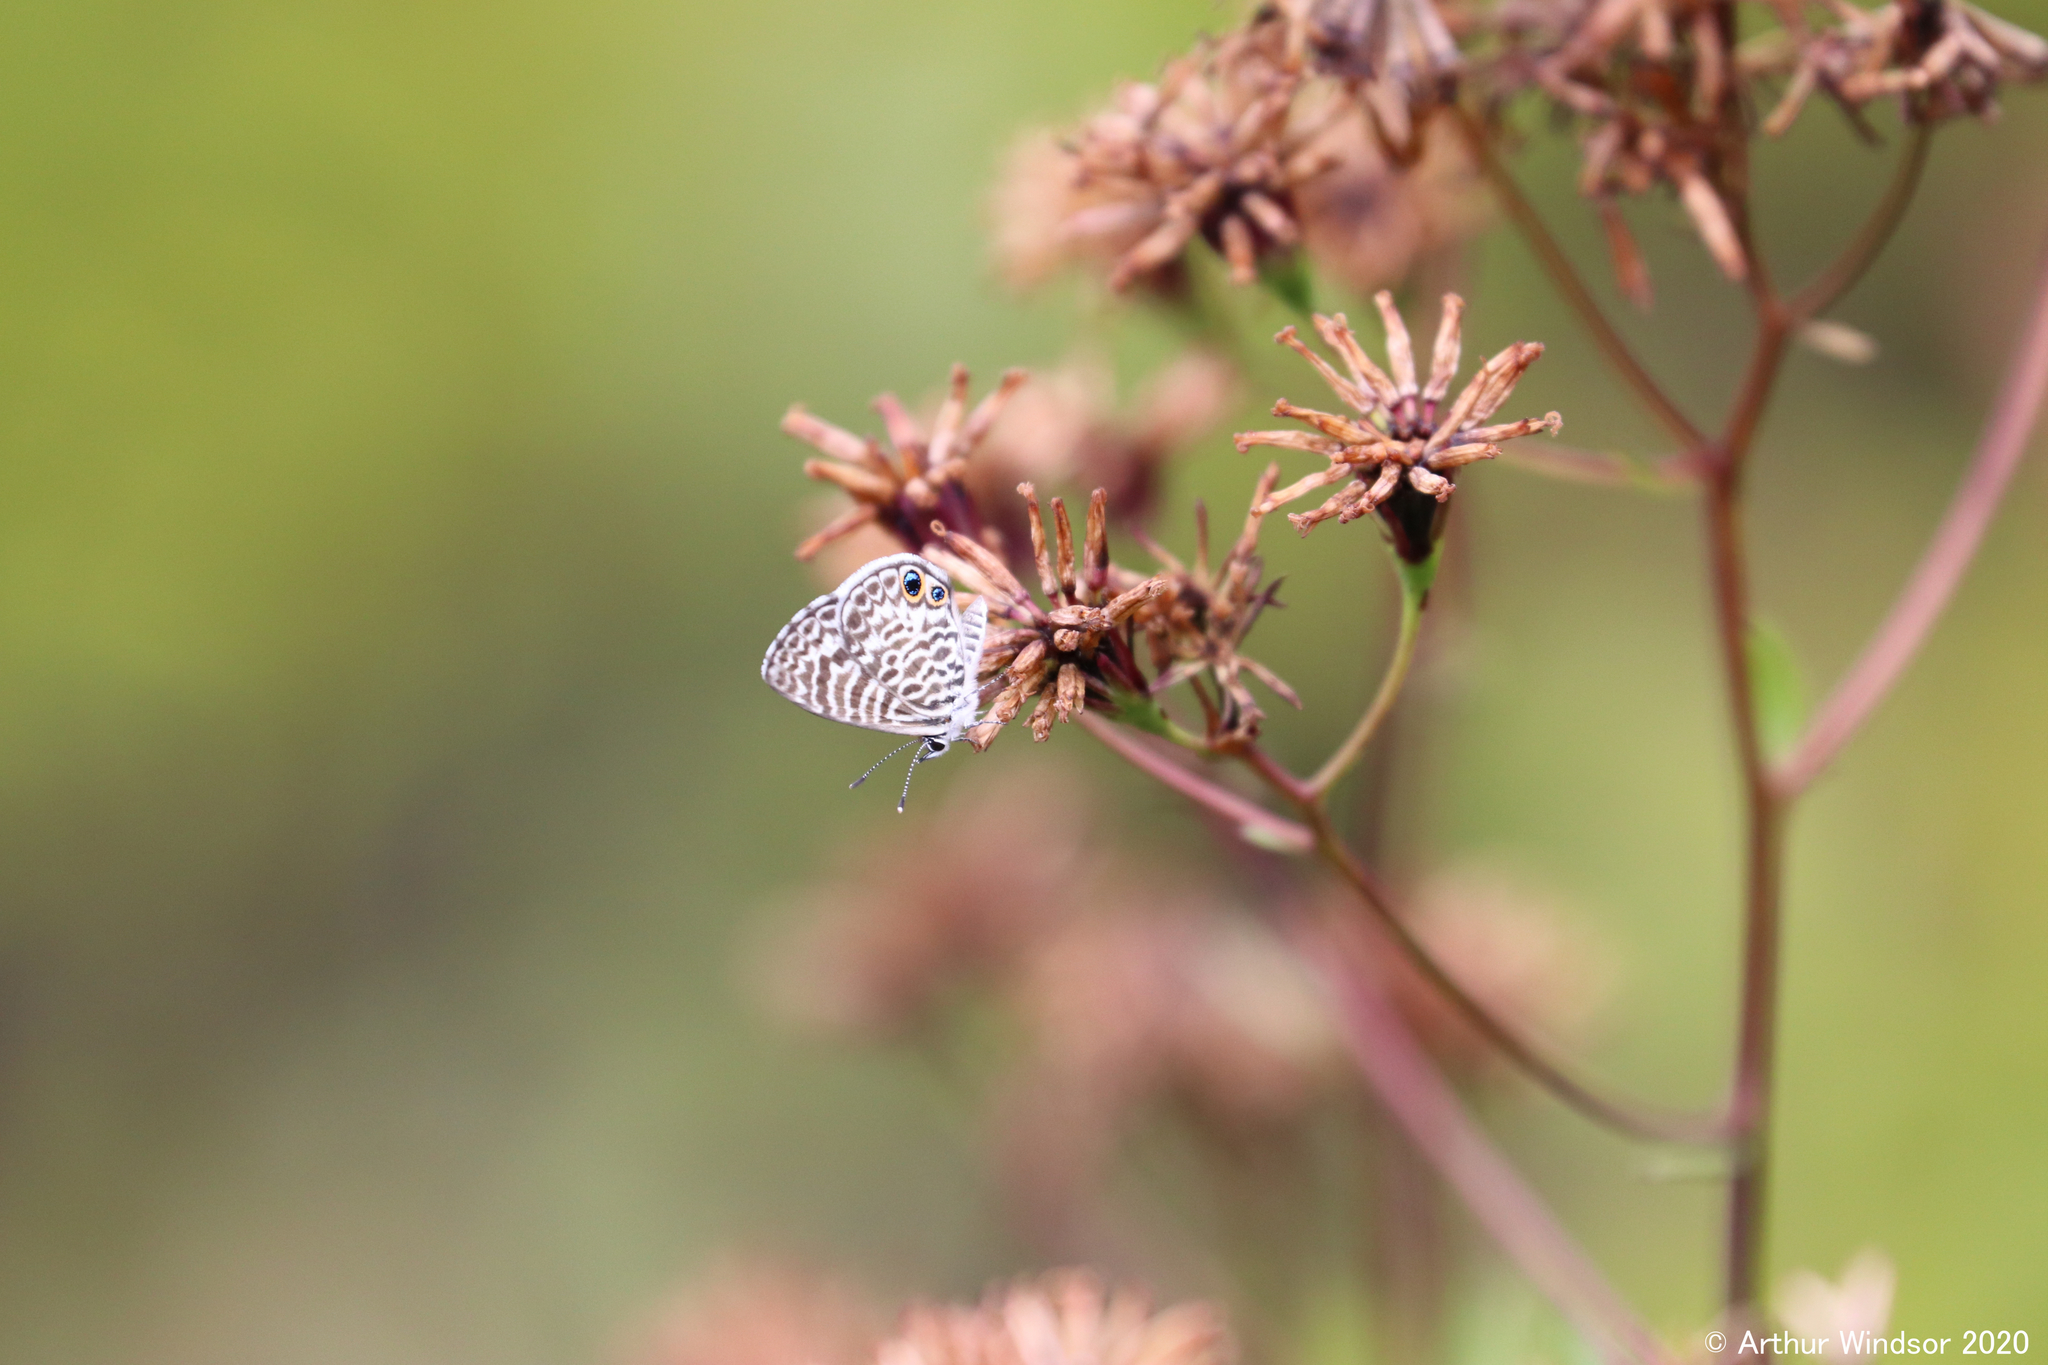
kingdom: Animalia
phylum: Arthropoda
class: Insecta
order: Lepidoptera
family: Lycaenidae
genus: Leptotes
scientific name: Leptotes cassius
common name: Cassius blue
